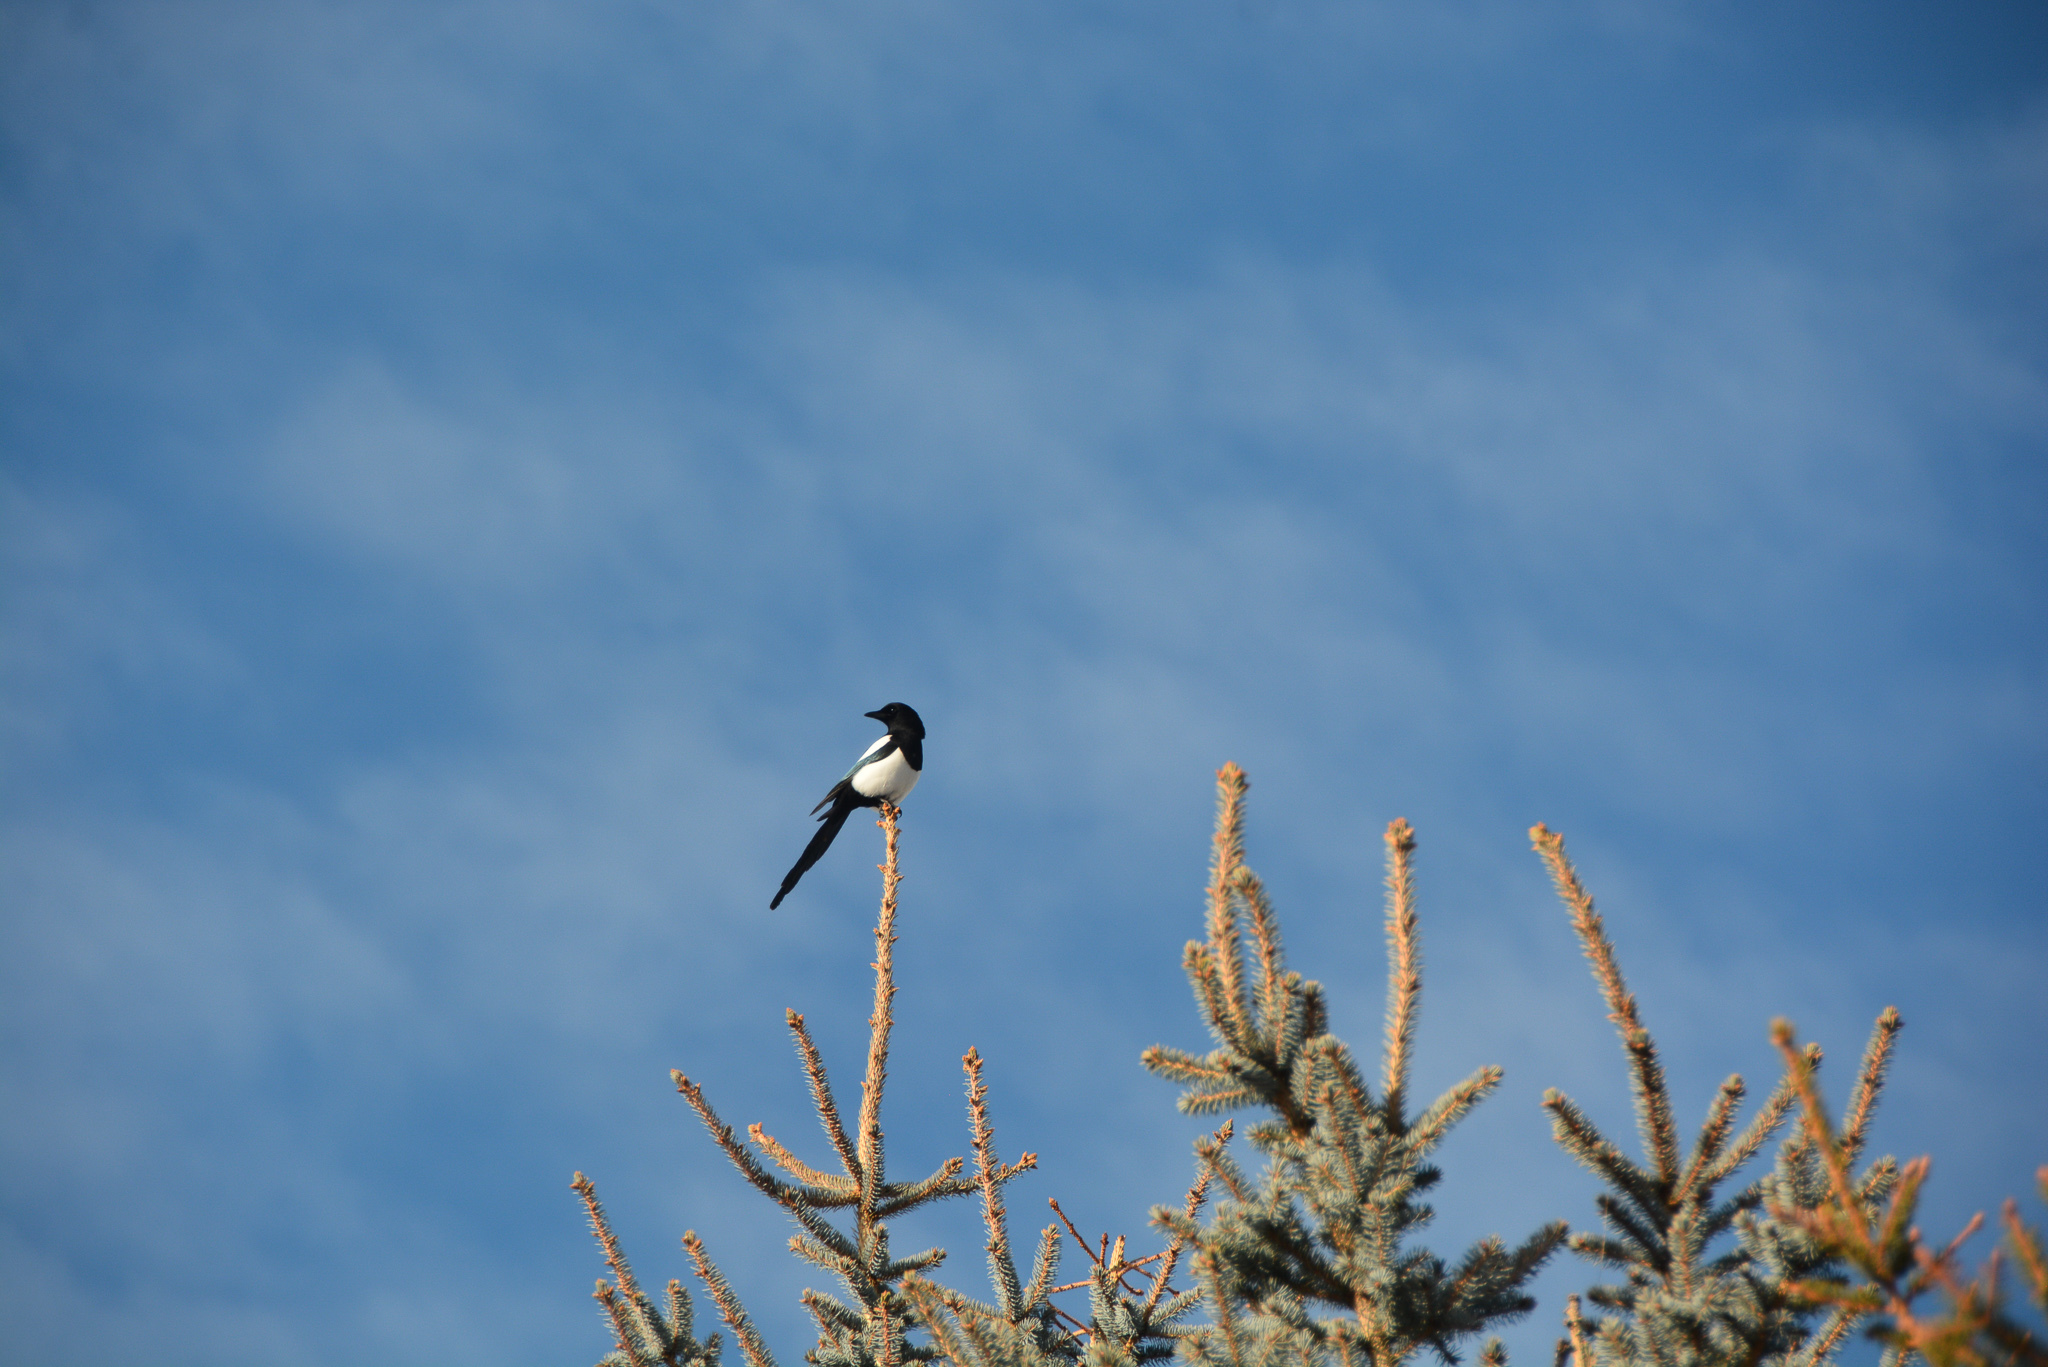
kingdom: Animalia
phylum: Chordata
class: Aves
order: Passeriformes
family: Corvidae
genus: Pica
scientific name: Pica hudsonia
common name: Black-billed magpie
